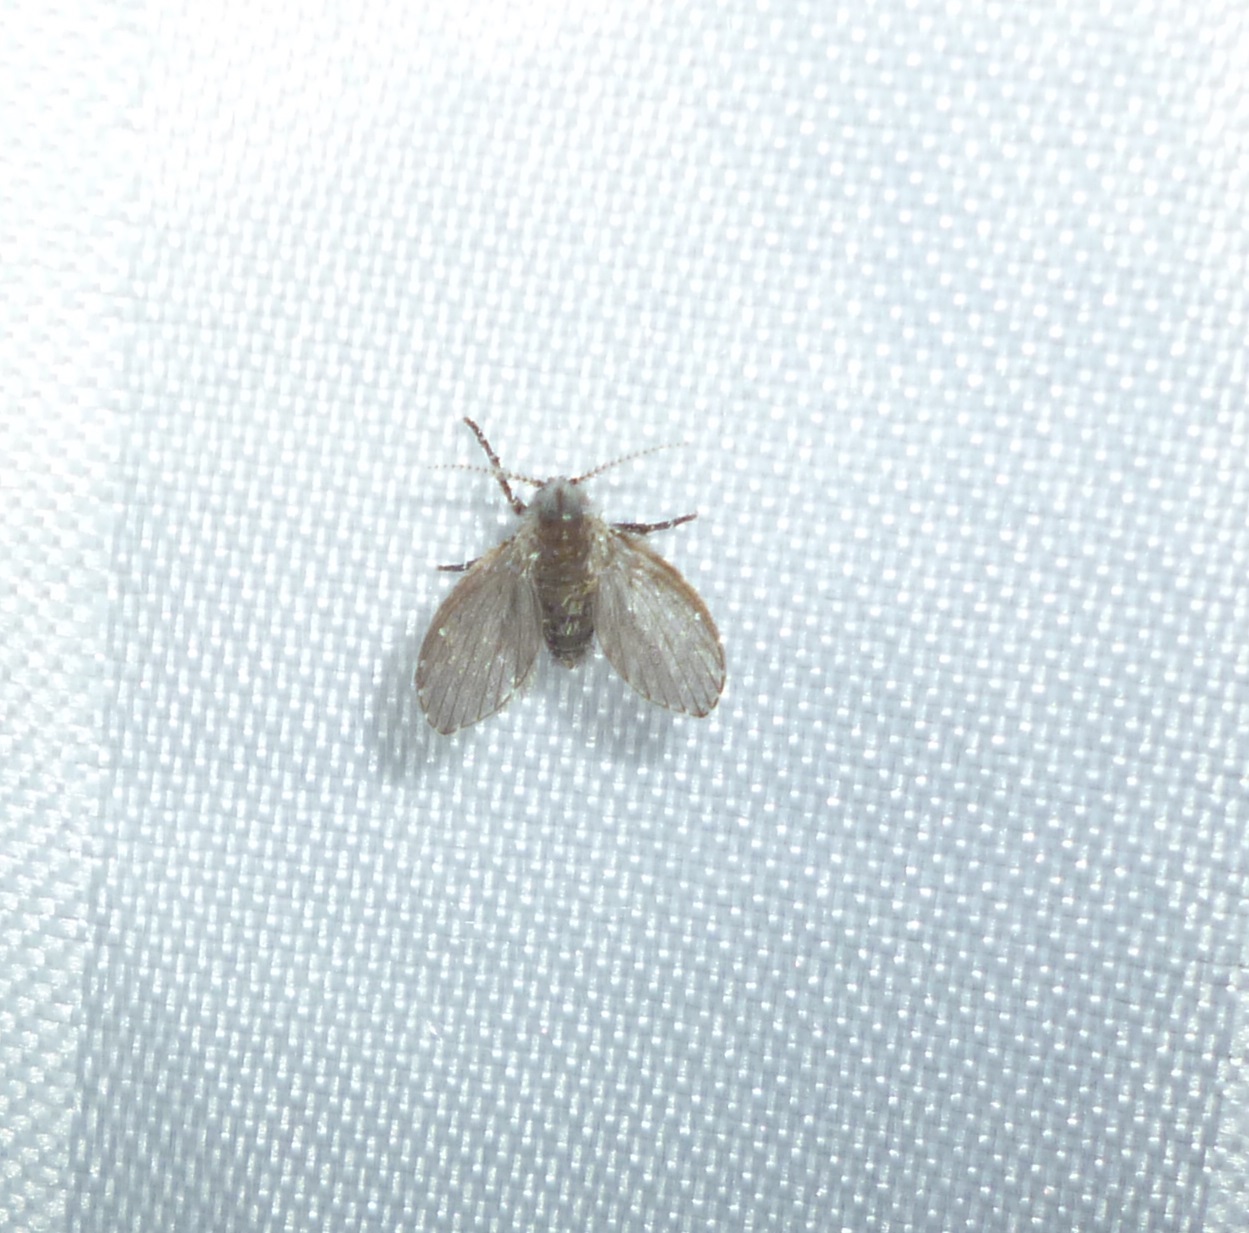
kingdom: Animalia
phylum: Arthropoda
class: Insecta
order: Diptera
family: Psychodidae
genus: Clogmia
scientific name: Clogmia albipunctatus
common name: White-spotted moth fly
